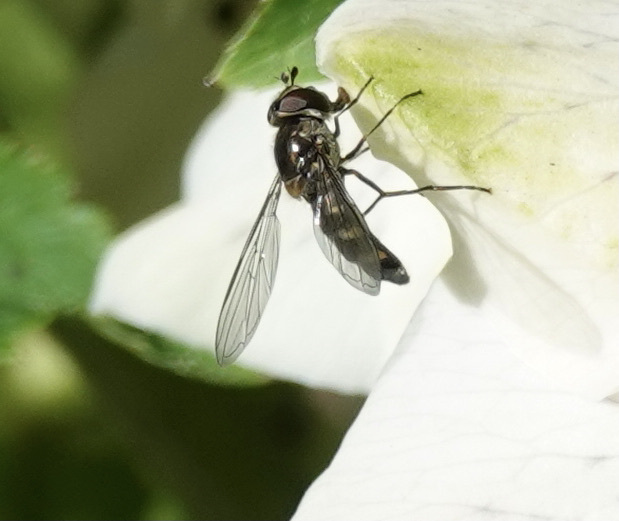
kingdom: Animalia
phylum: Arthropoda
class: Insecta
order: Diptera
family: Syrphidae
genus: Meliscaeva
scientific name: Meliscaeva auricollis
